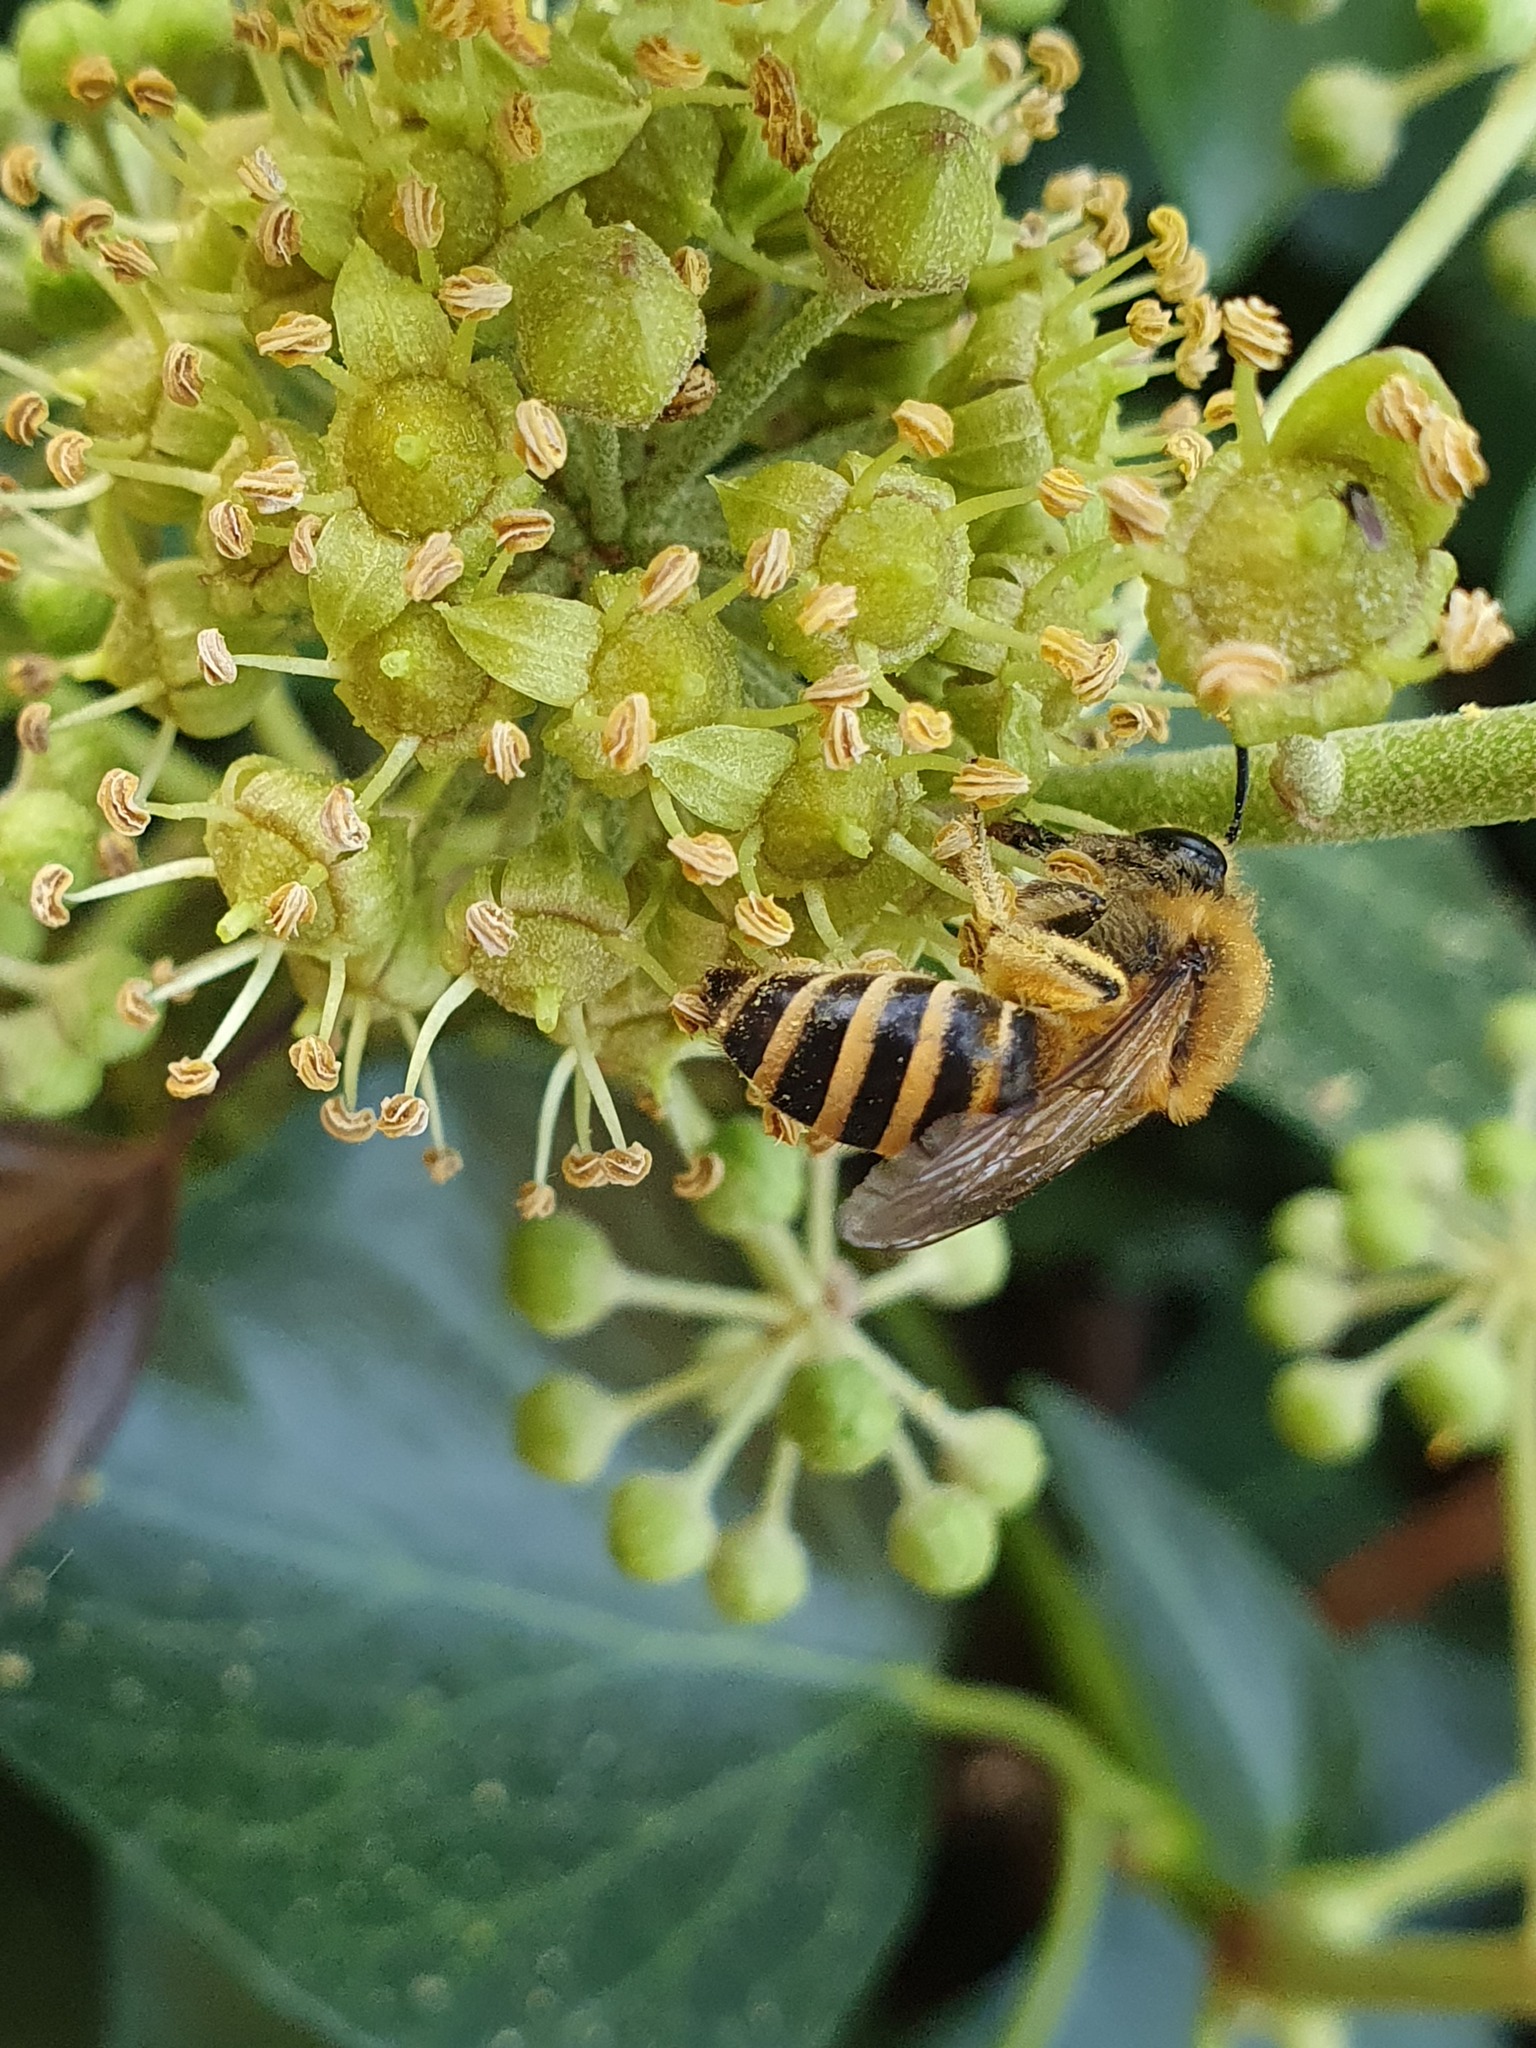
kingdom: Animalia
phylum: Arthropoda
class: Insecta
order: Hymenoptera
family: Colletidae
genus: Colletes
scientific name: Colletes hederae
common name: Ivy bee
